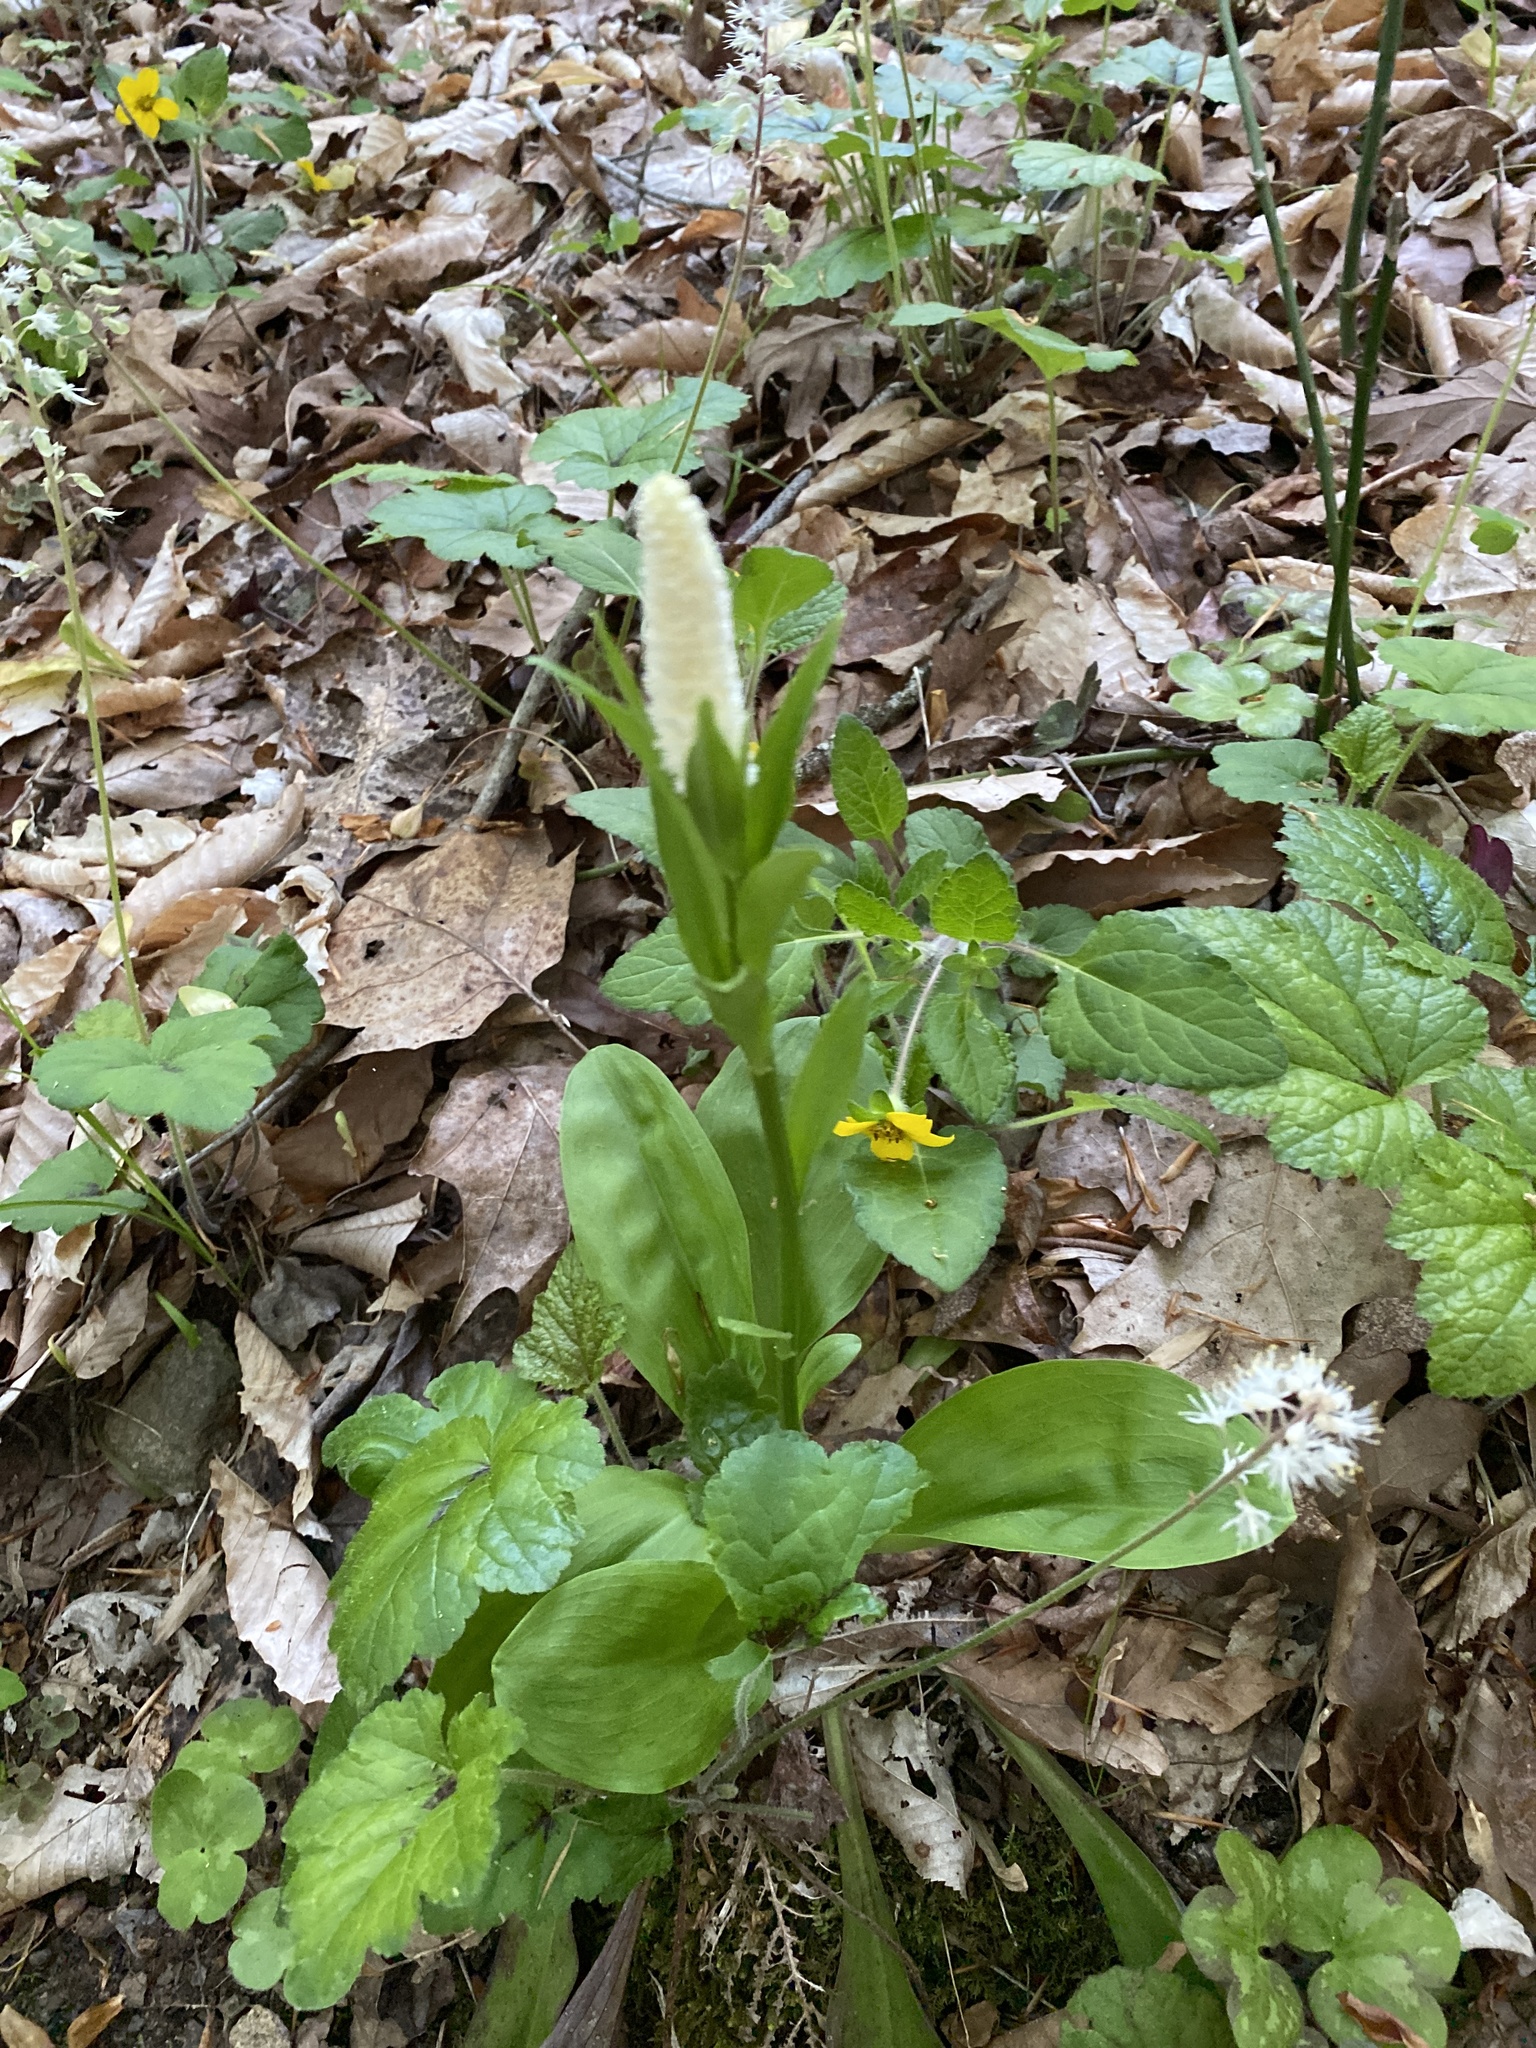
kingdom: Plantae
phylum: Tracheophyta
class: Liliopsida
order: Liliales
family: Melanthiaceae
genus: Chamaelirium
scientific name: Chamaelirium luteum
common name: Fairy-wand
